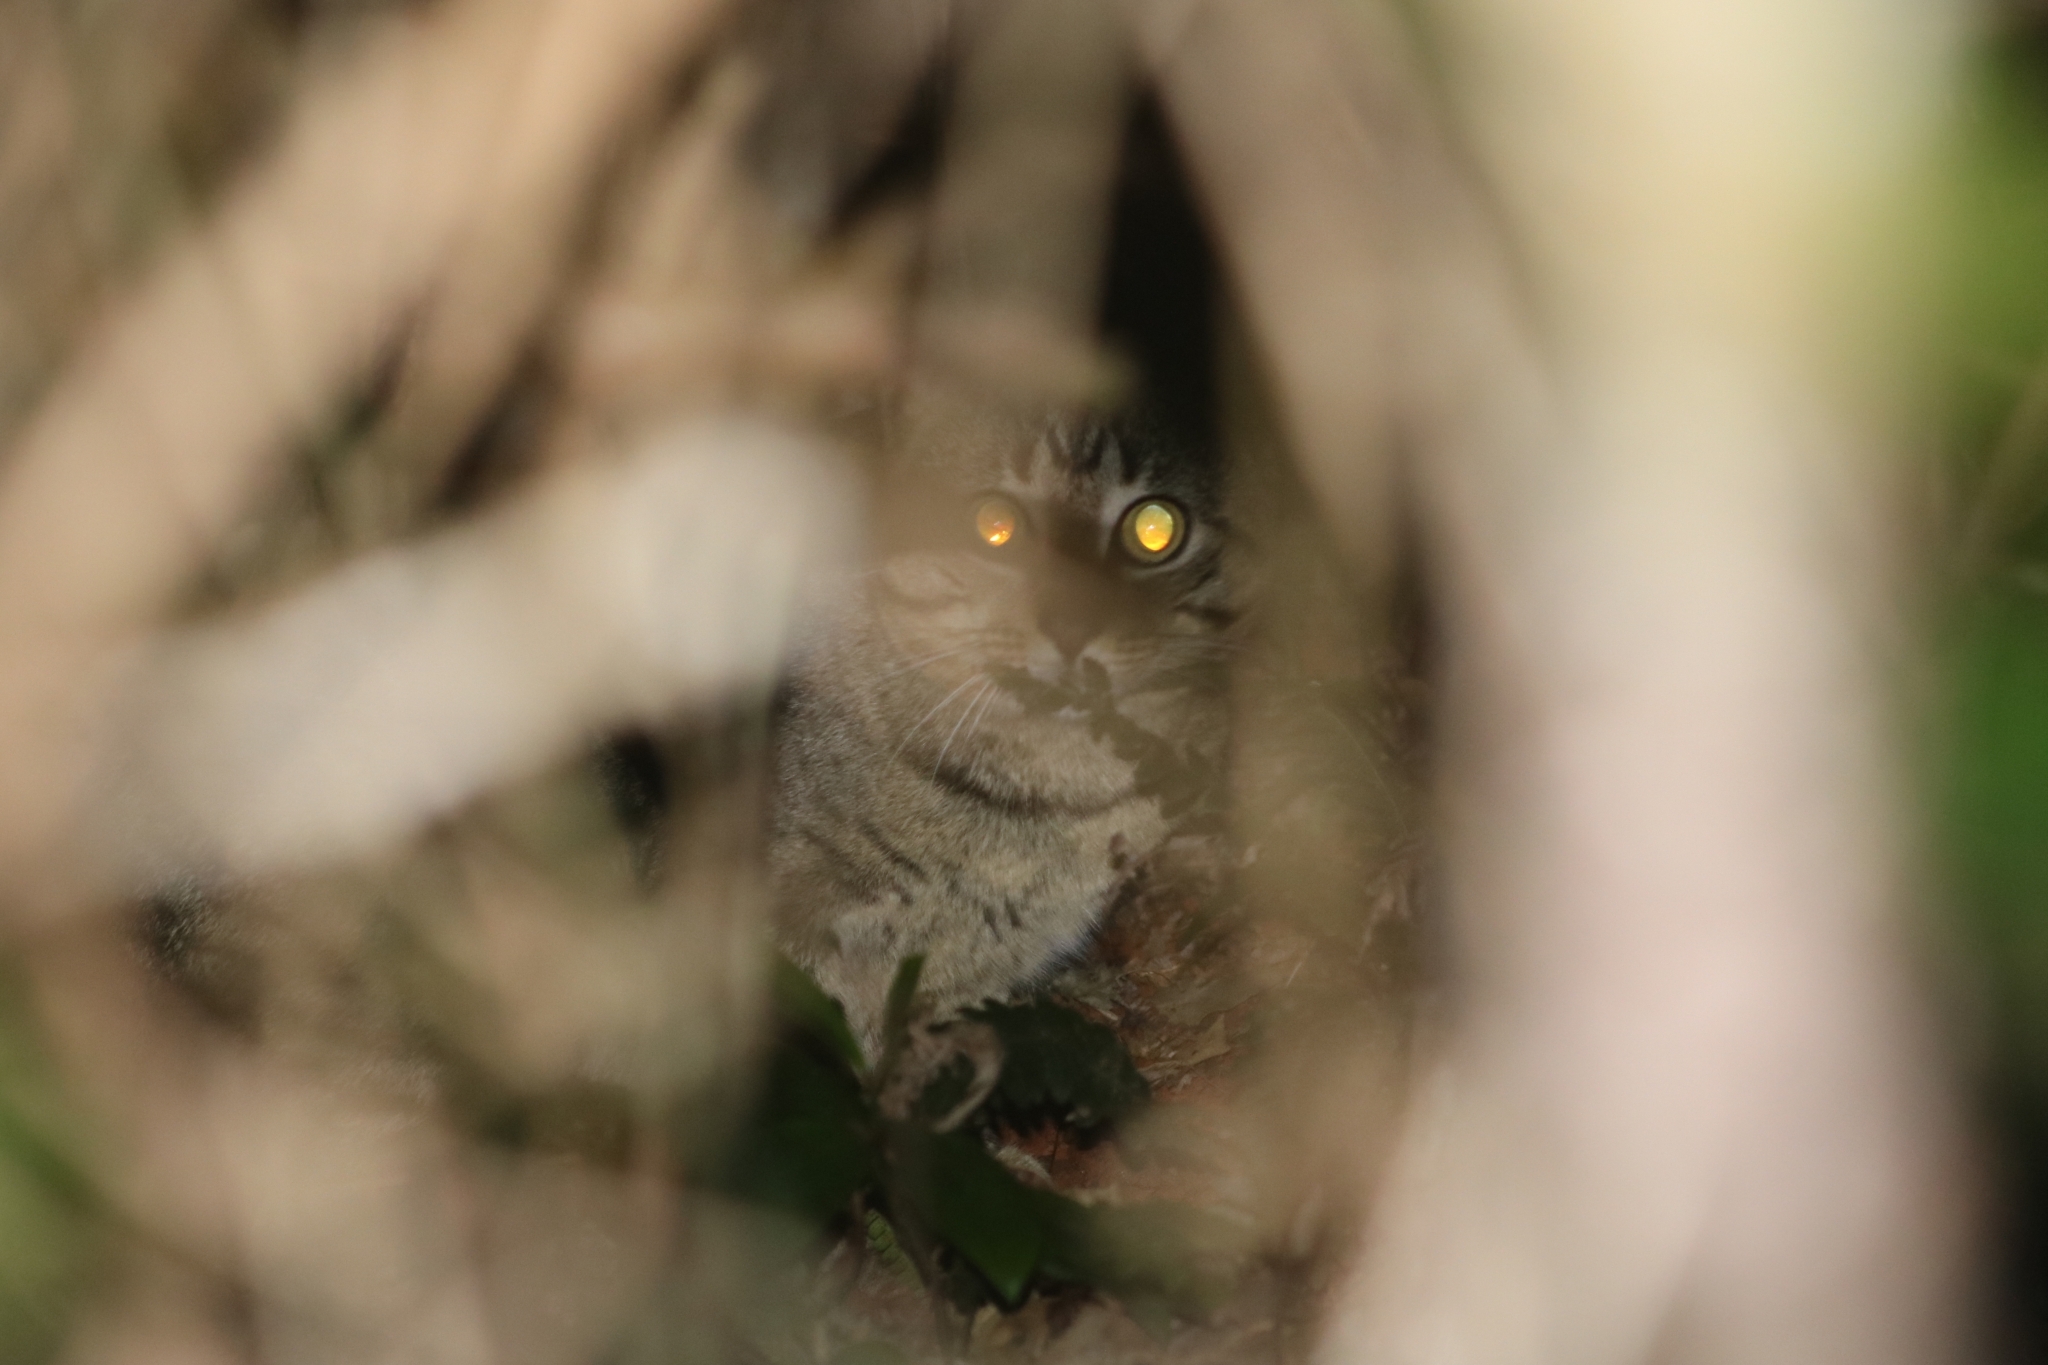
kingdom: Animalia
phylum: Chordata
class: Mammalia
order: Carnivora
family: Felidae
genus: Felis
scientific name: Felis catus
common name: Domestic cat
